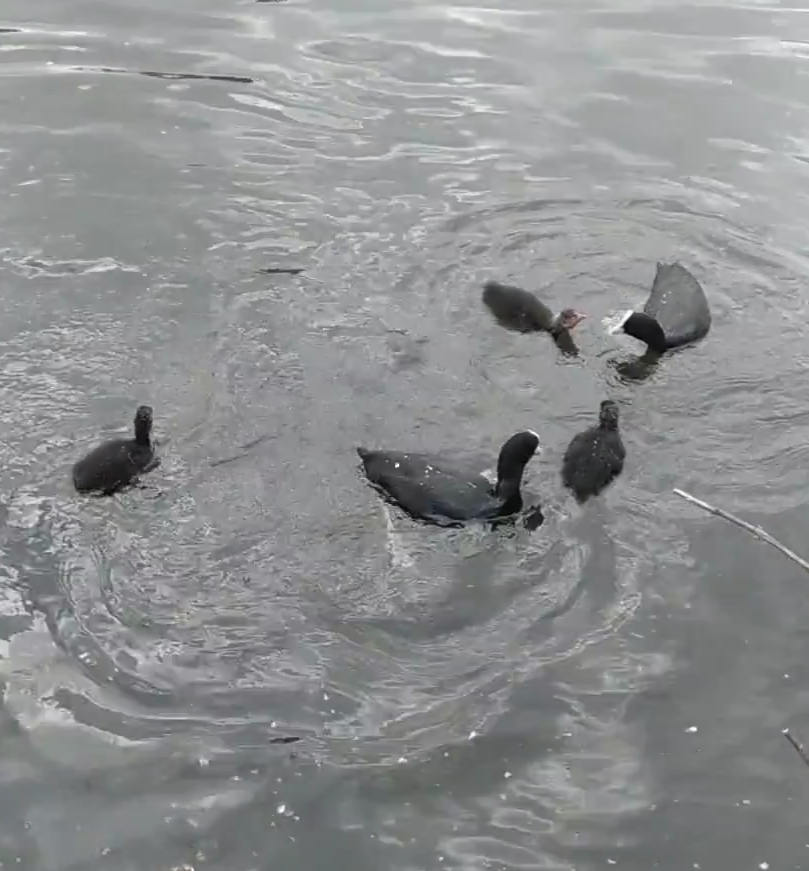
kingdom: Animalia
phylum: Chordata
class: Aves
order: Gruiformes
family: Rallidae
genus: Fulica
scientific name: Fulica atra
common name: Eurasian coot
